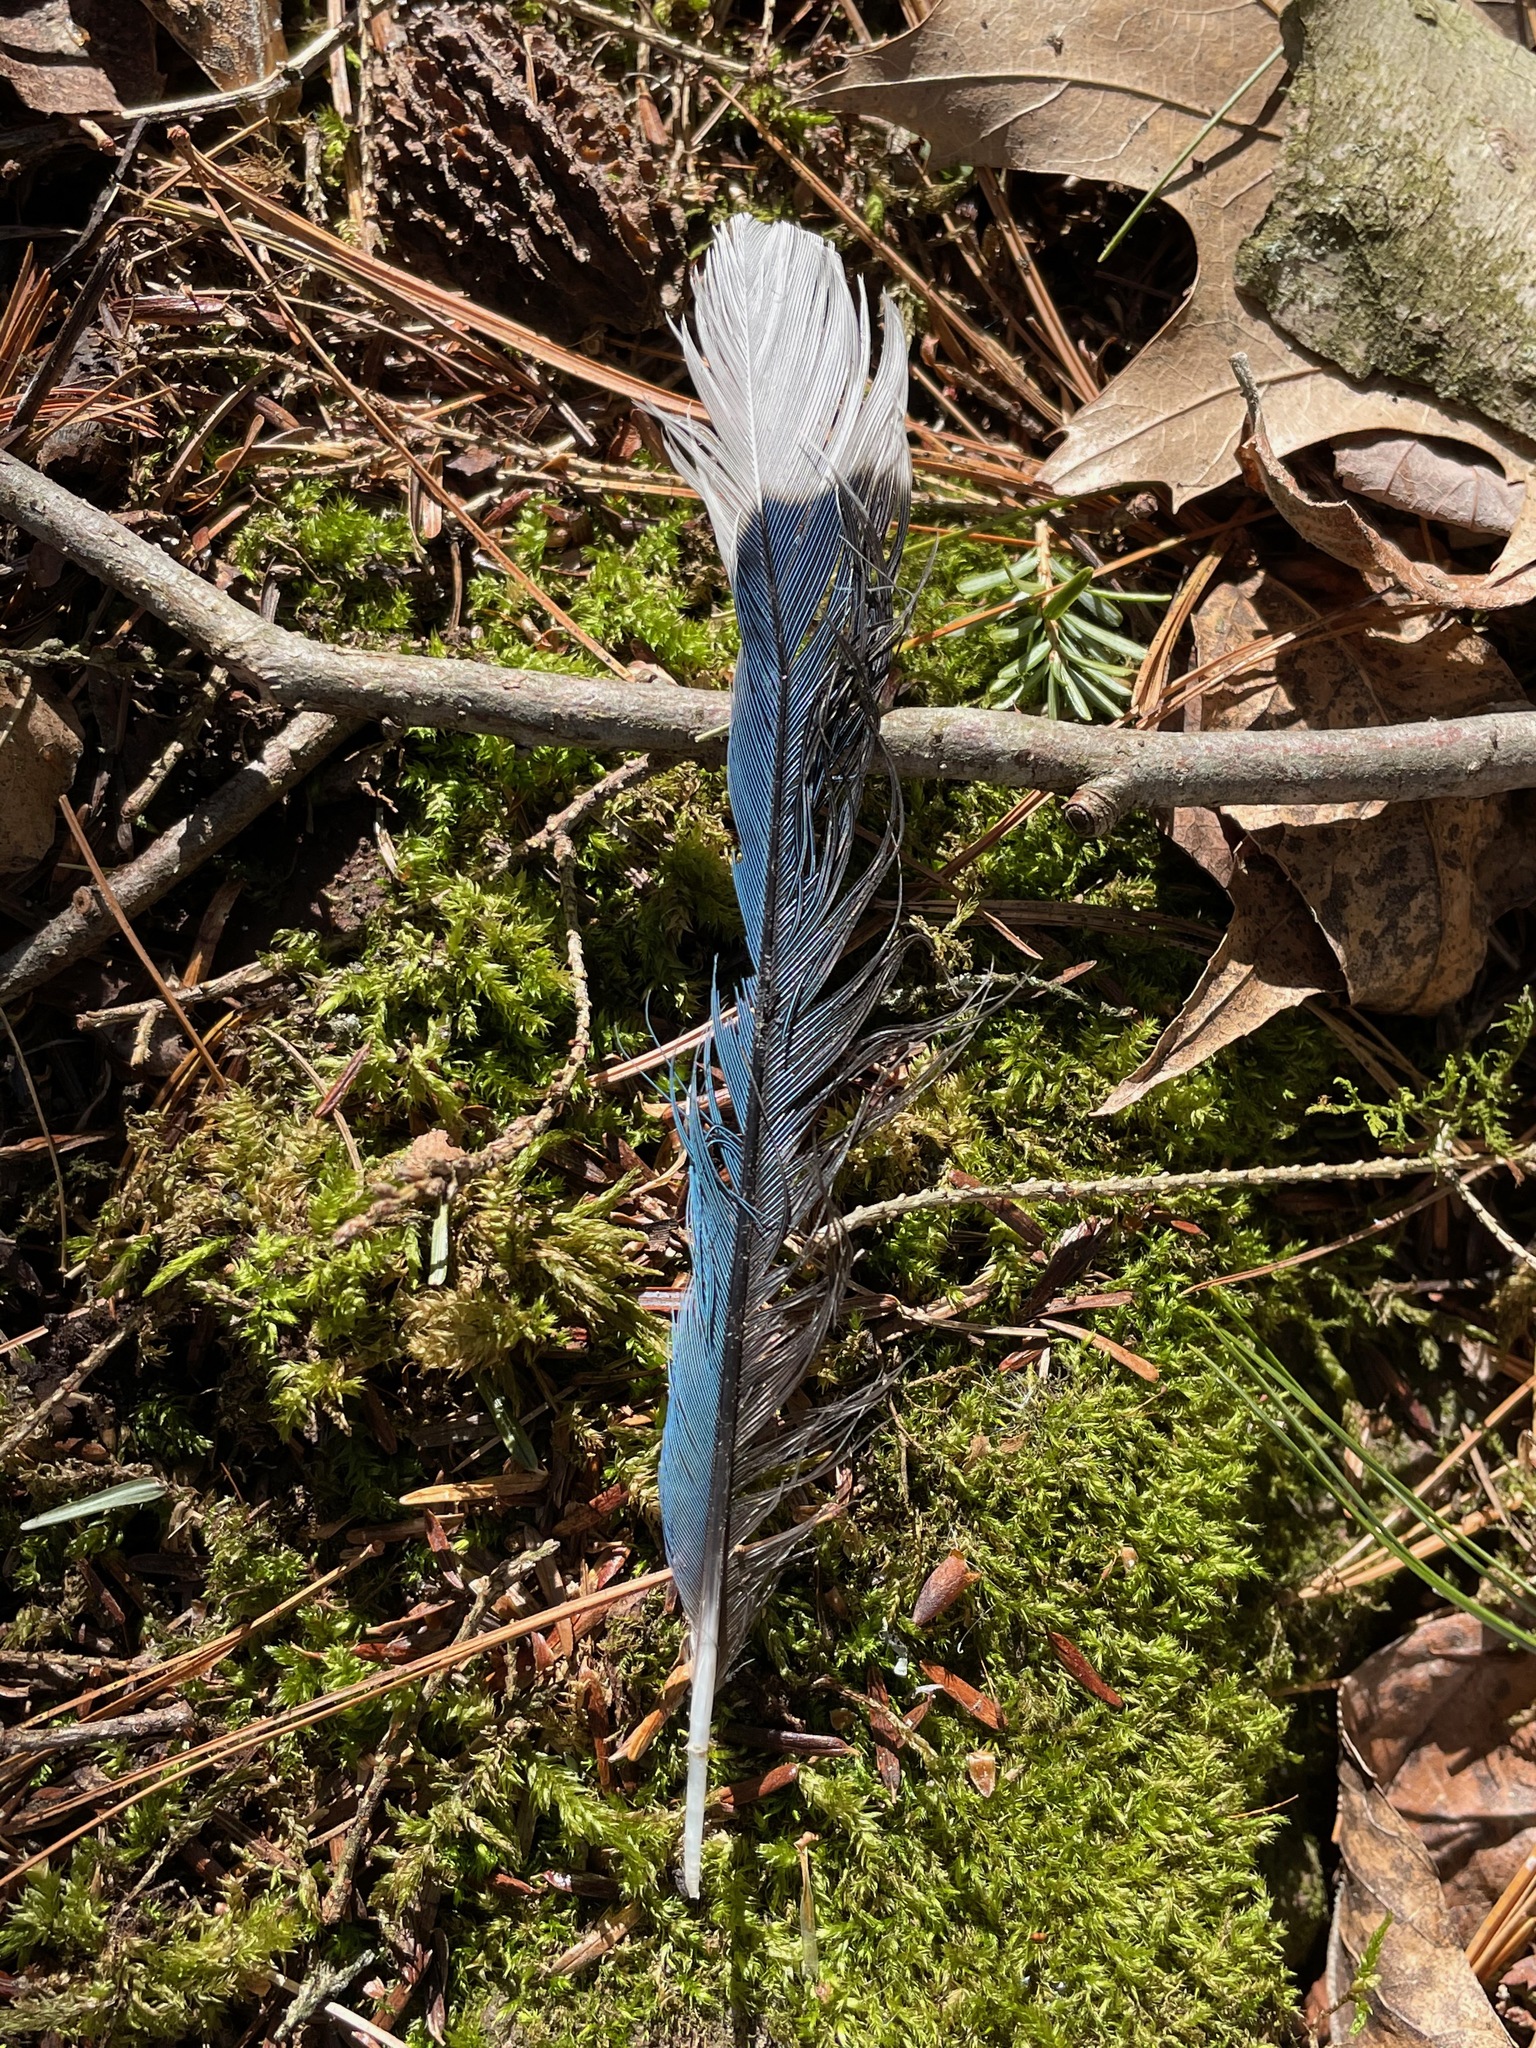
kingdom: Animalia
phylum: Chordata
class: Aves
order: Passeriformes
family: Corvidae
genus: Cyanocitta
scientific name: Cyanocitta cristata
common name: Blue jay
